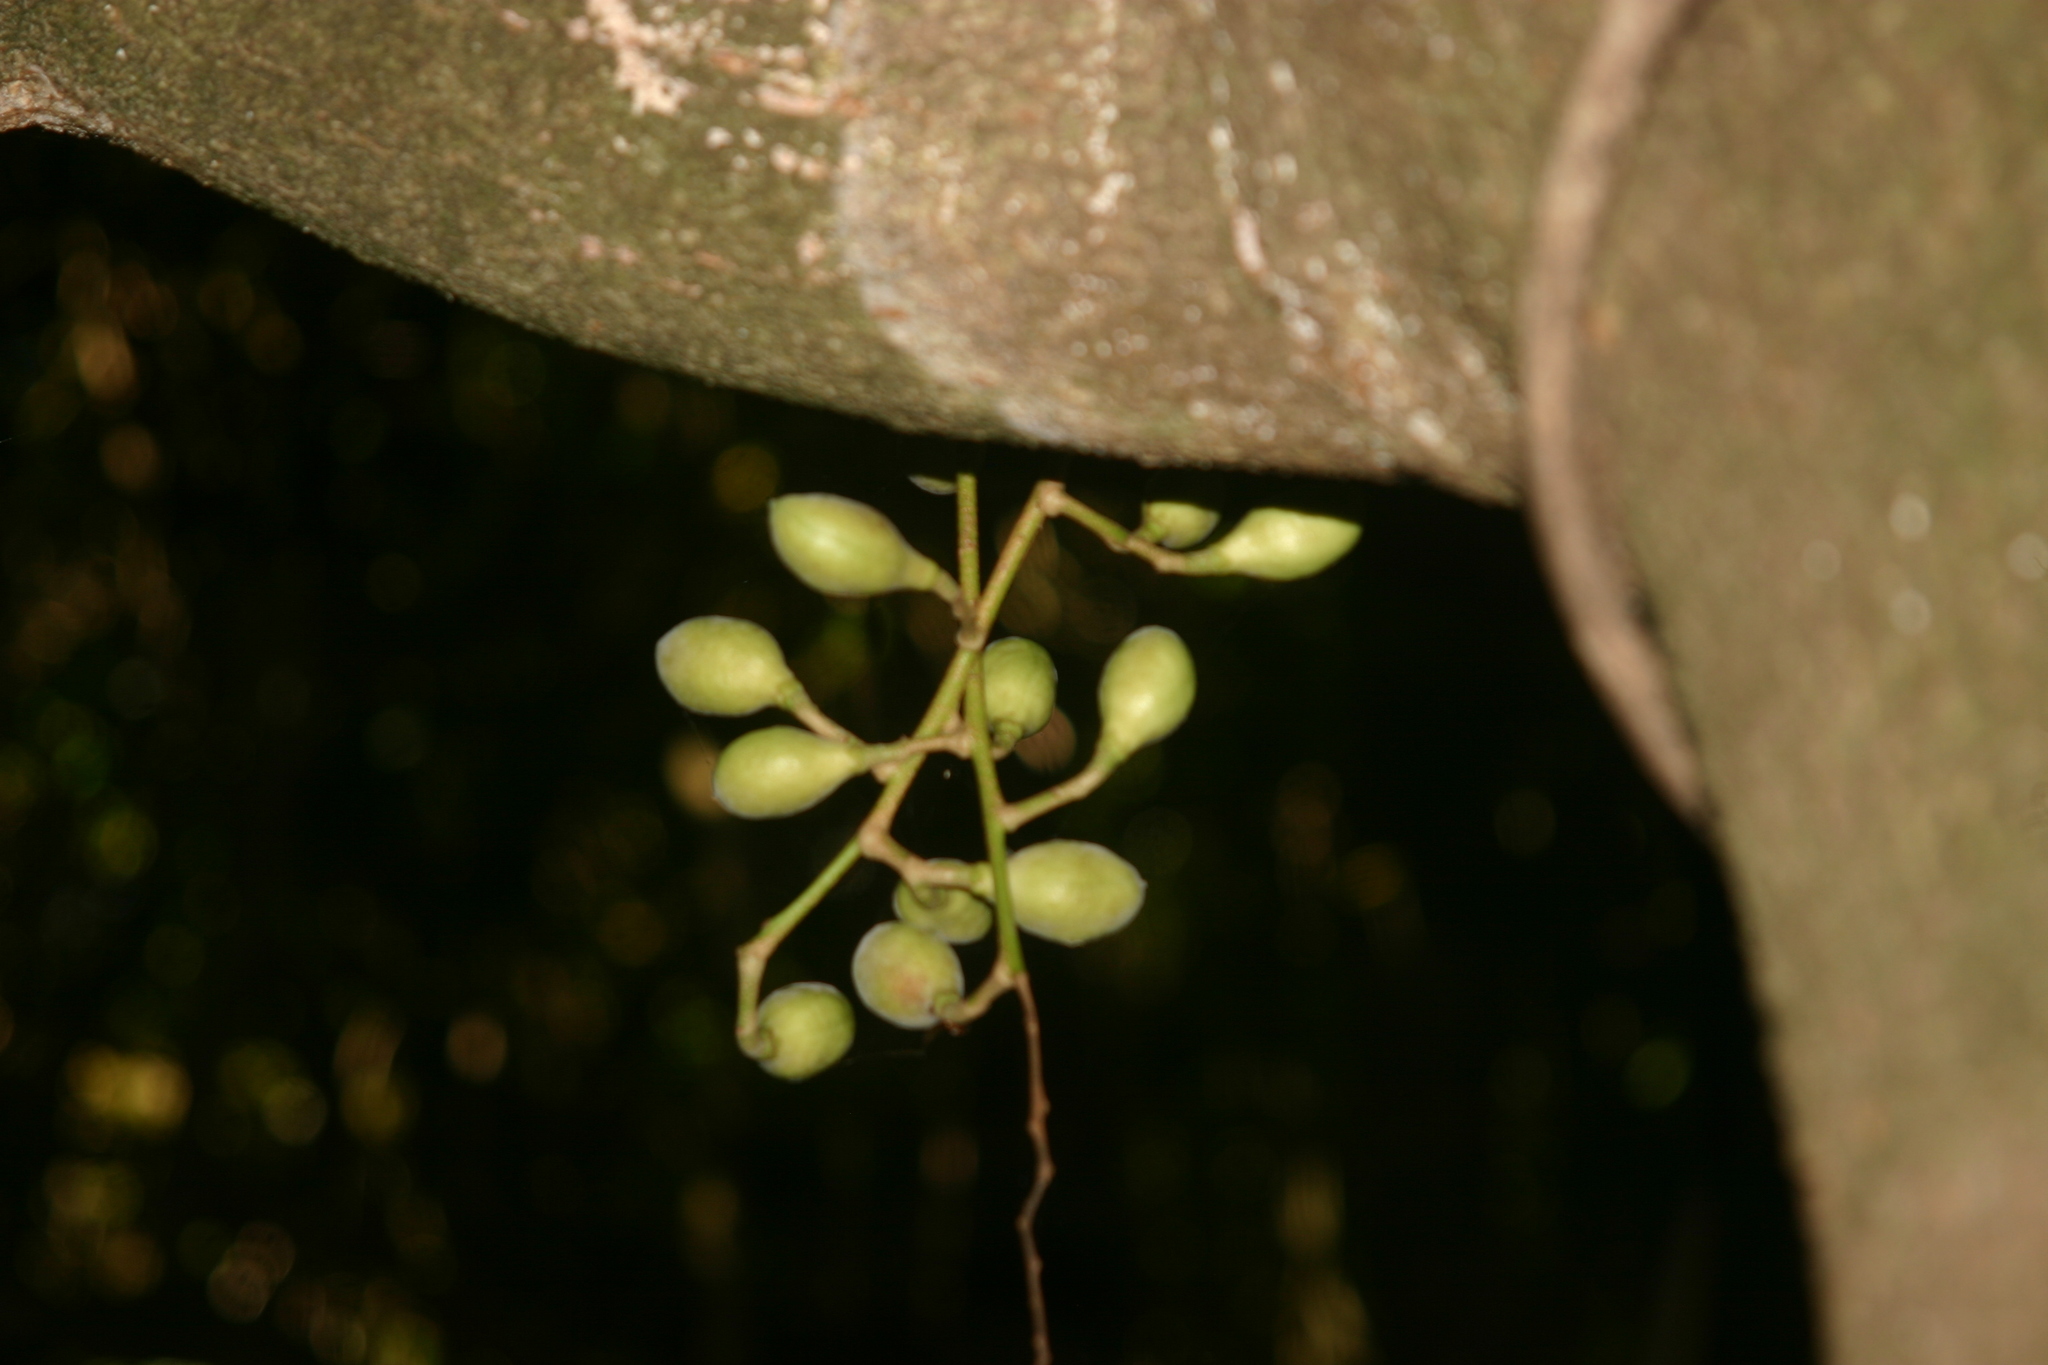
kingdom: Plantae
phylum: Tracheophyta
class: Magnoliopsida
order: Sapindales
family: Meliaceae
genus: Didymocheton
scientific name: Didymocheton spectabilis
